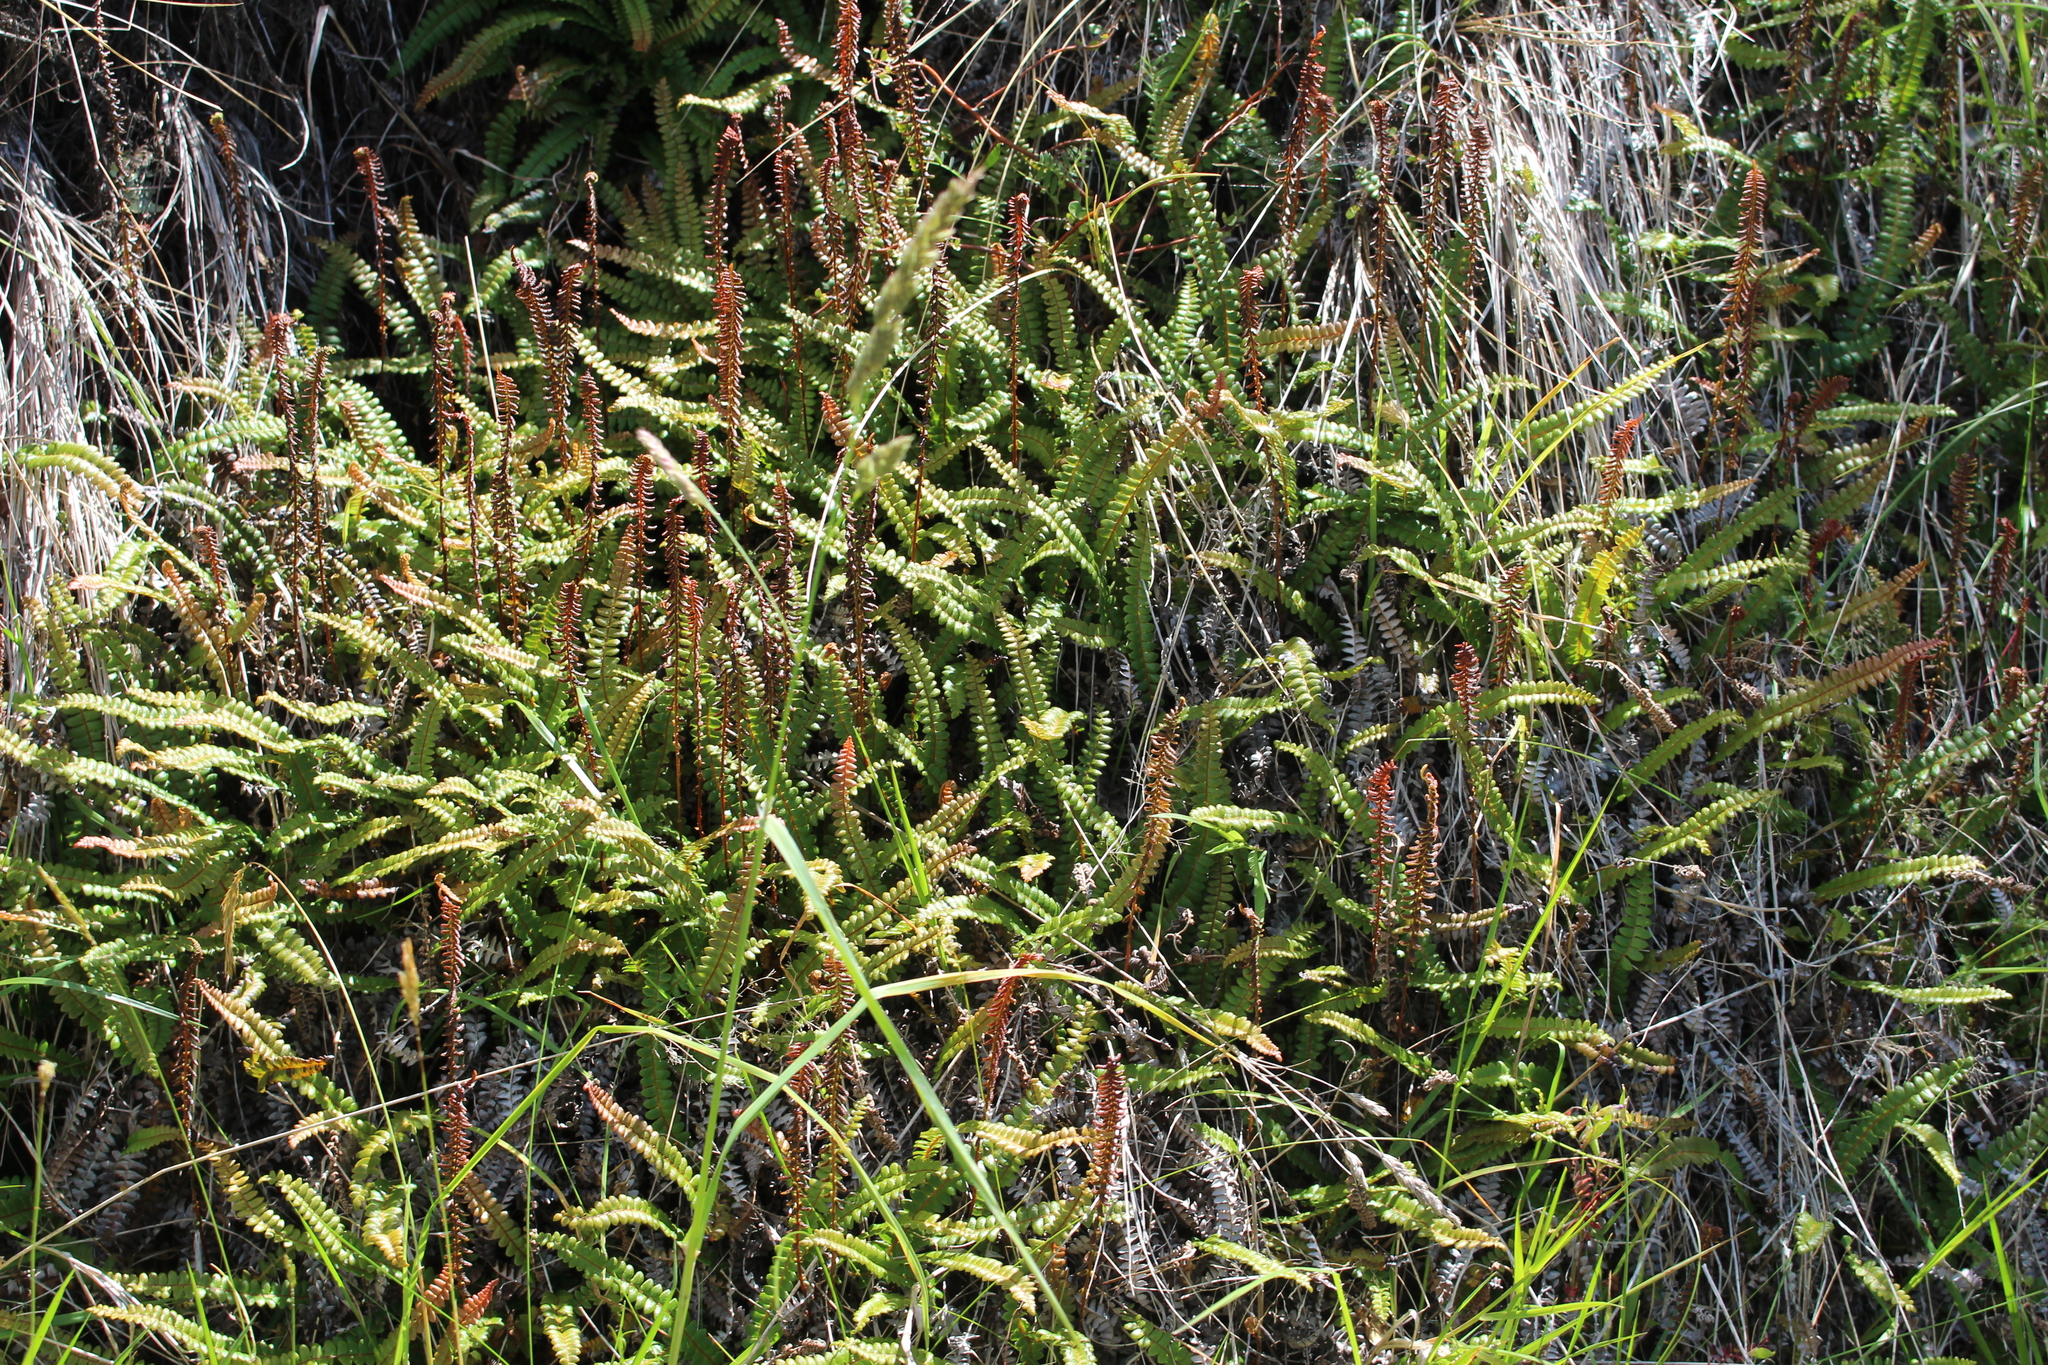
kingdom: Plantae
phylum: Tracheophyta
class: Polypodiopsida
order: Polypodiales
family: Blechnaceae
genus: Austroblechnum
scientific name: Austroblechnum penna-marina
